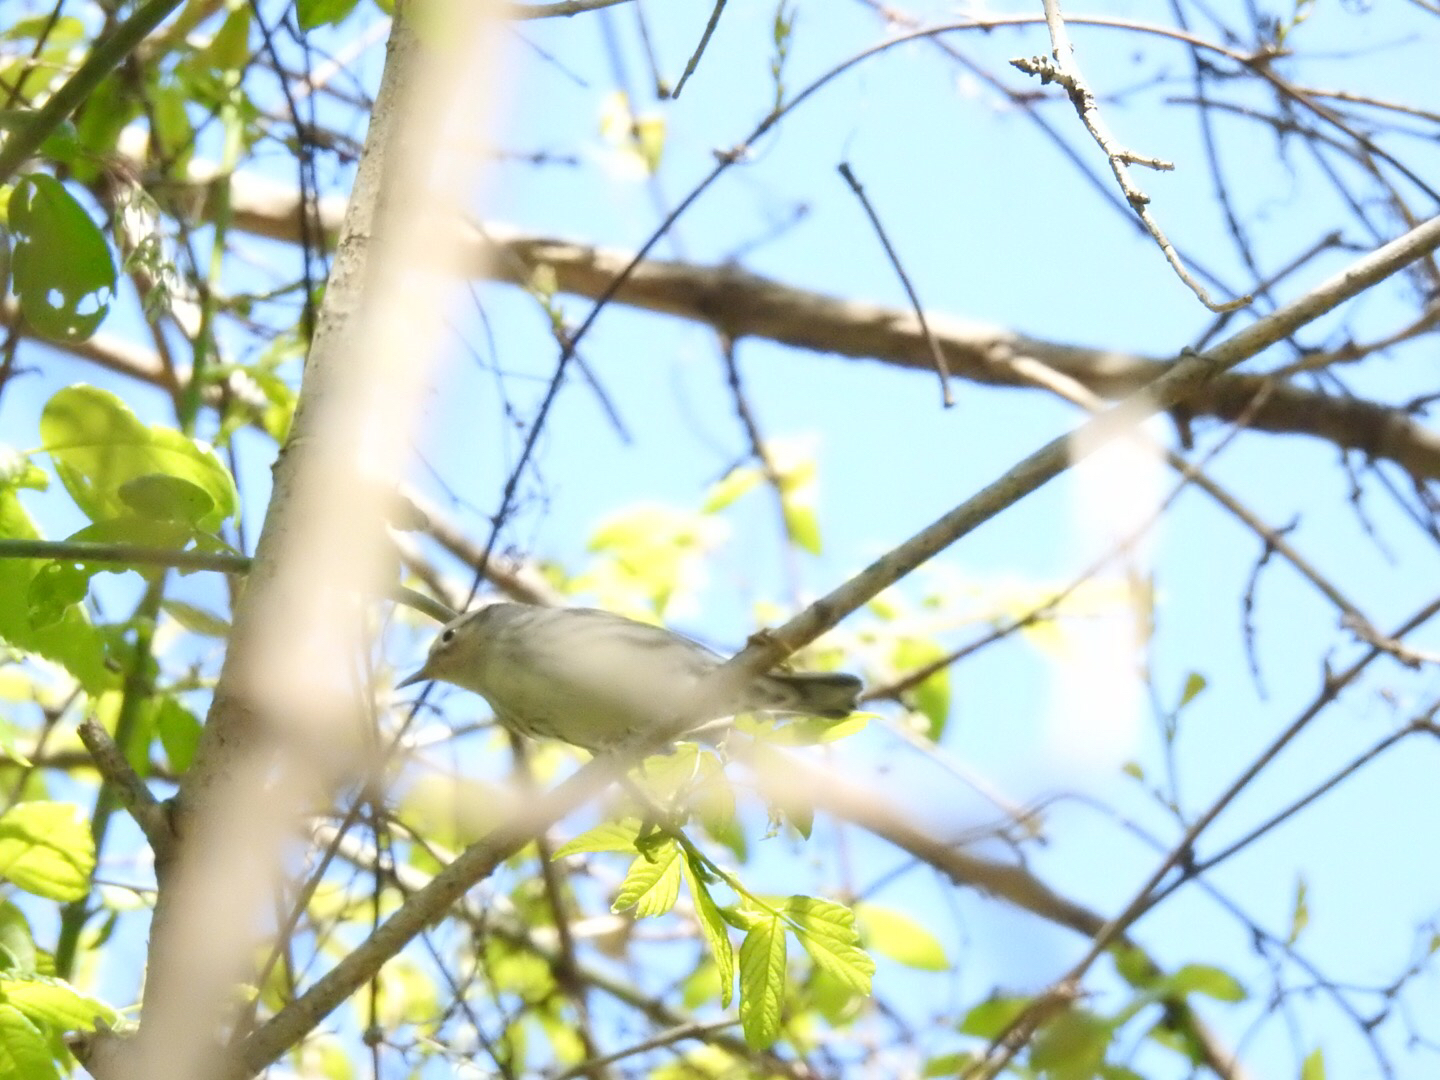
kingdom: Animalia
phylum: Chordata
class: Aves
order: Passeriformes
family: Parulidae
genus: Mniotilta
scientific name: Mniotilta varia
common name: Black-and-white warbler
